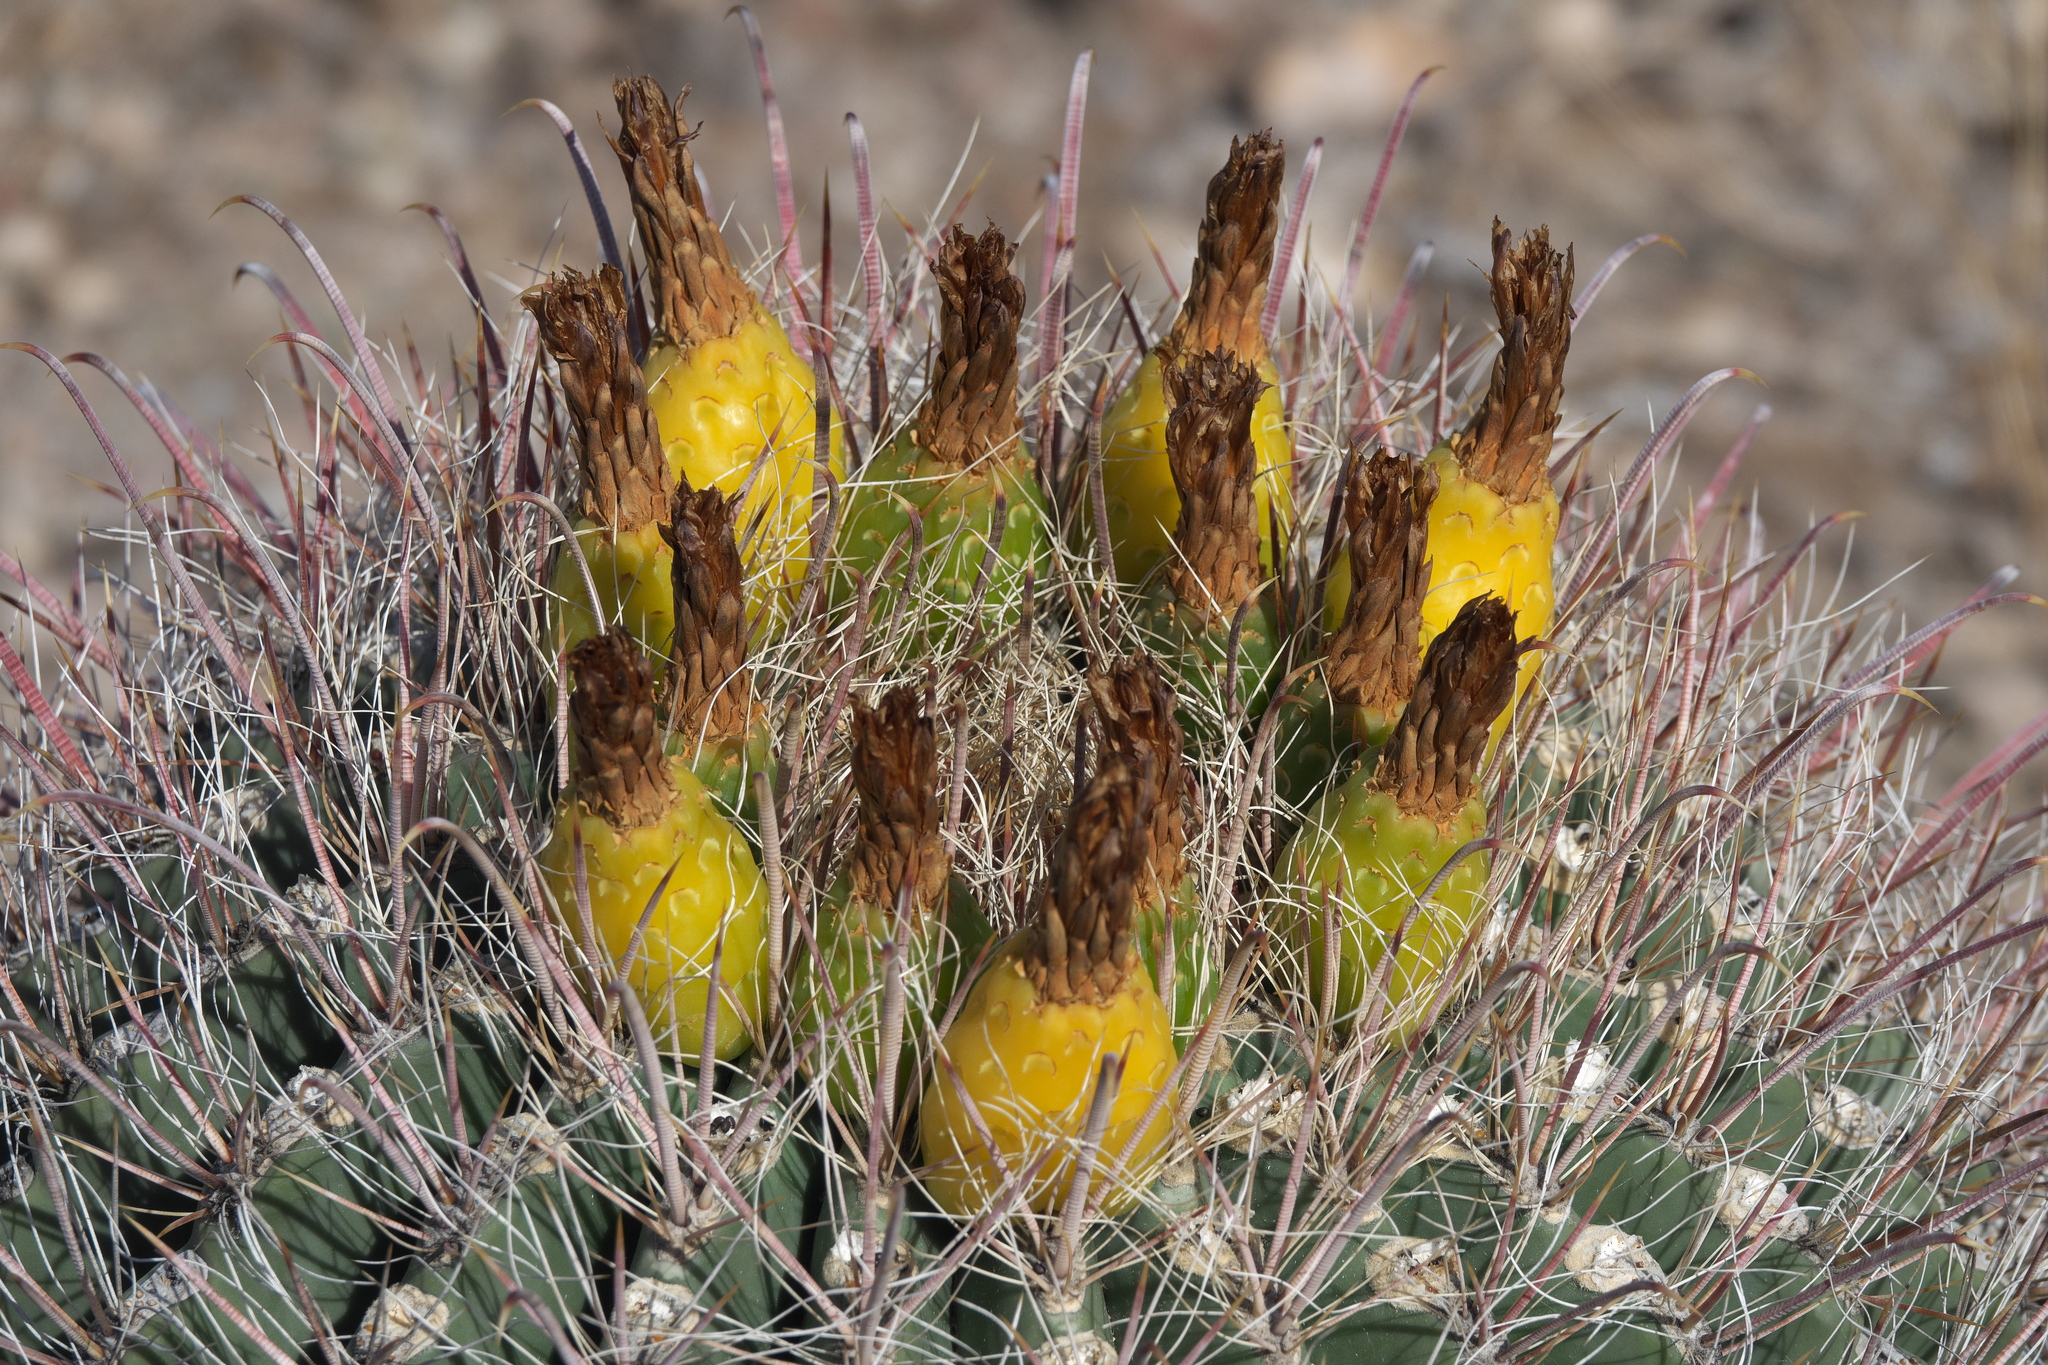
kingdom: Plantae
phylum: Tracheophyta
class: Magnoliopsida
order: Caryophyllales
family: Cactaceae
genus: Ferocactus
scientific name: Ferocactus wislizeni
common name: Candy barrel cactus
